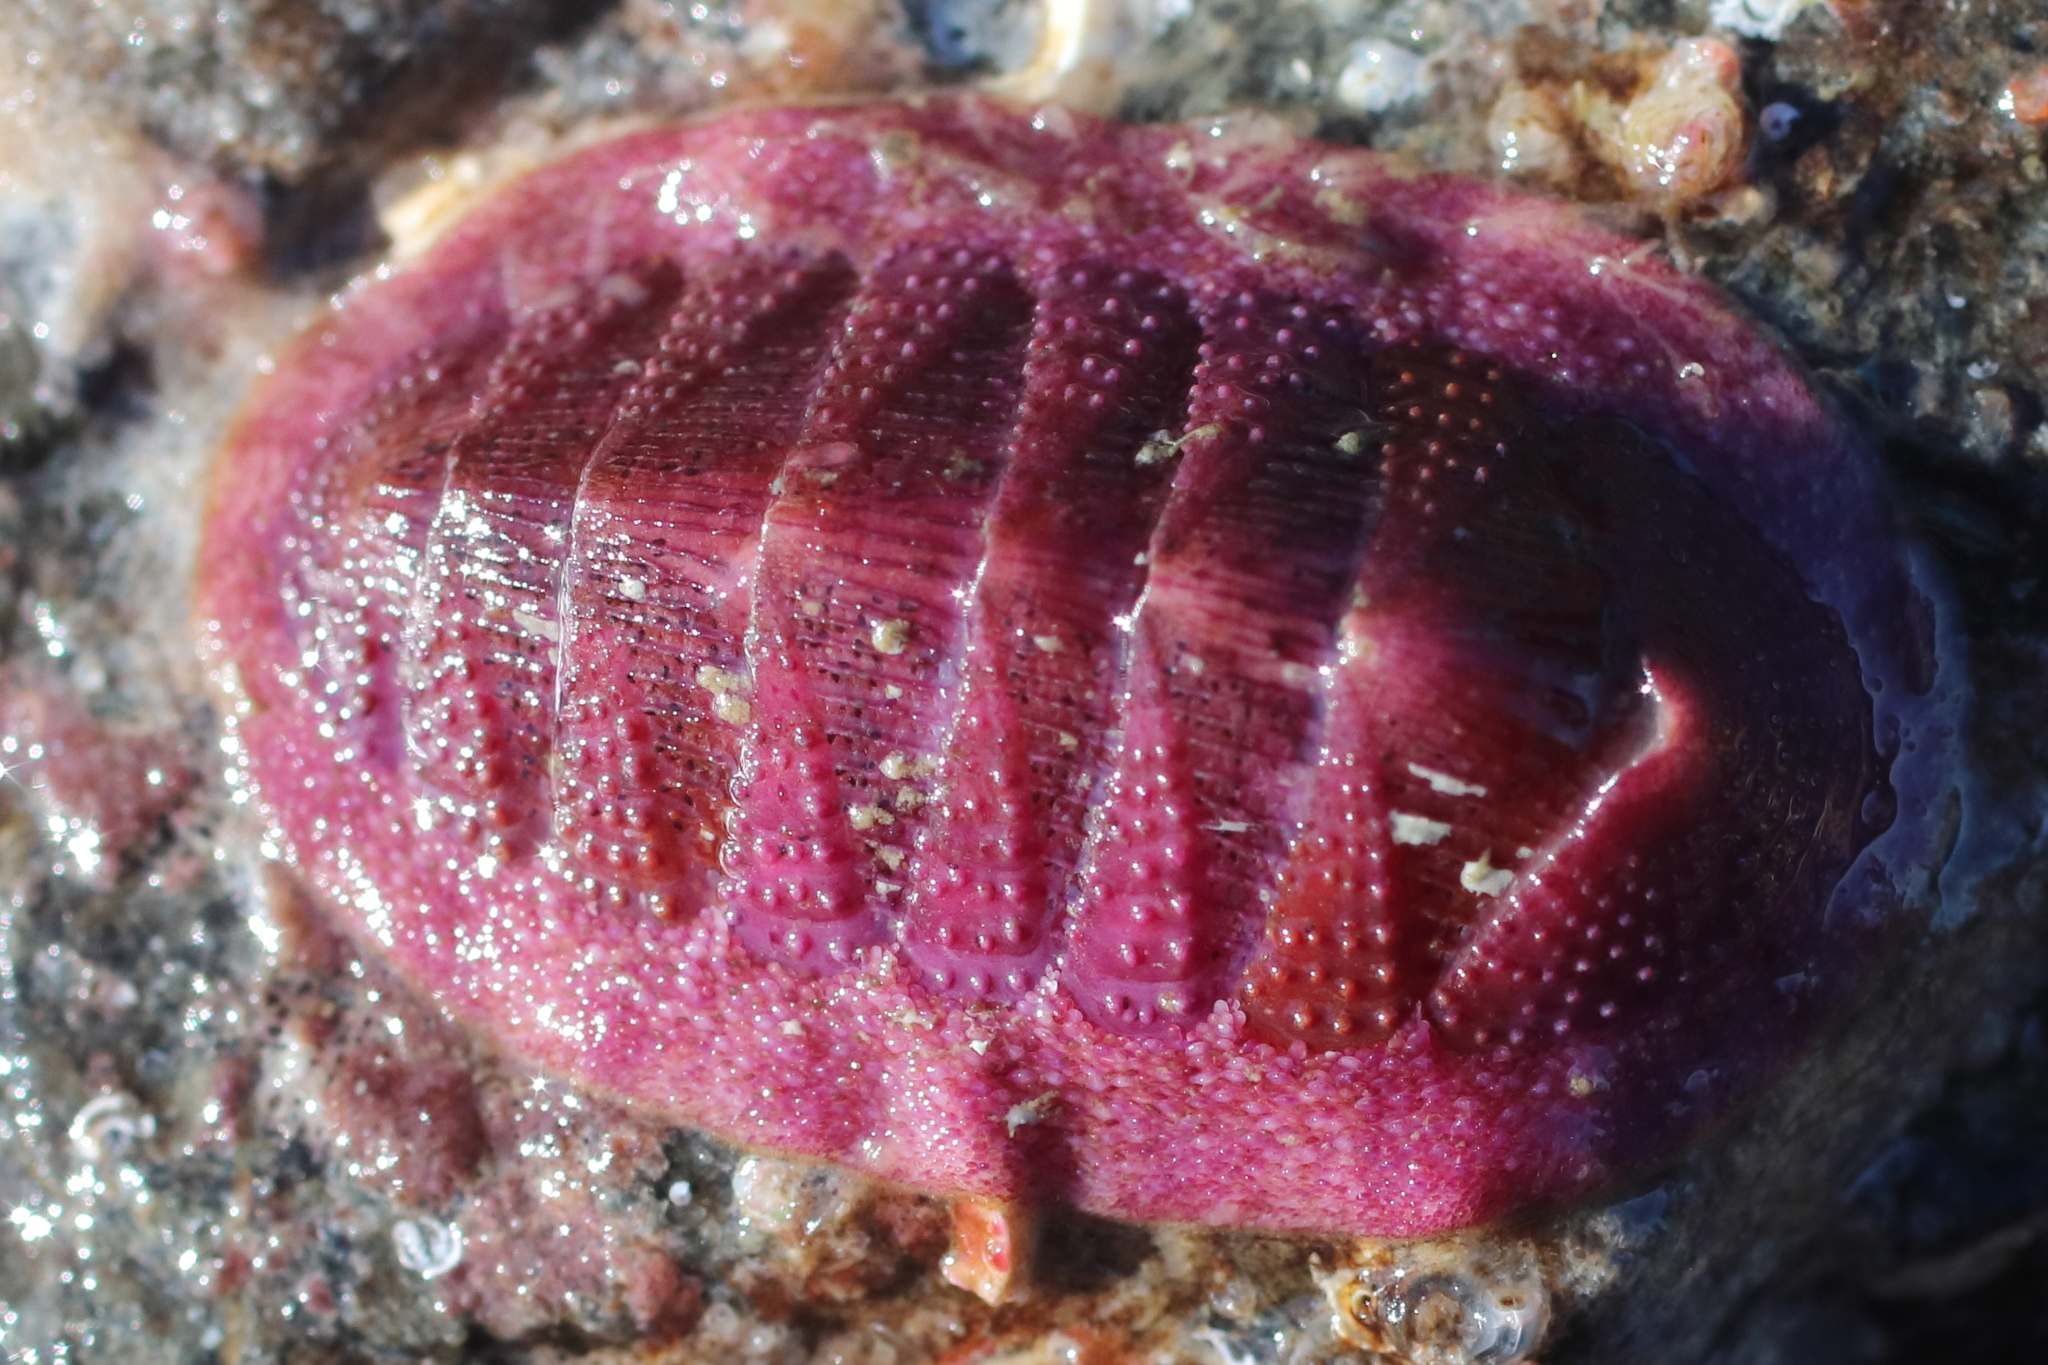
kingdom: Animalia
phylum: Mollusca
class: Polyplacophora
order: Chitonida
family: Ischnochitonidae
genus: Lepidozona
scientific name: Lepidozona mertensii
